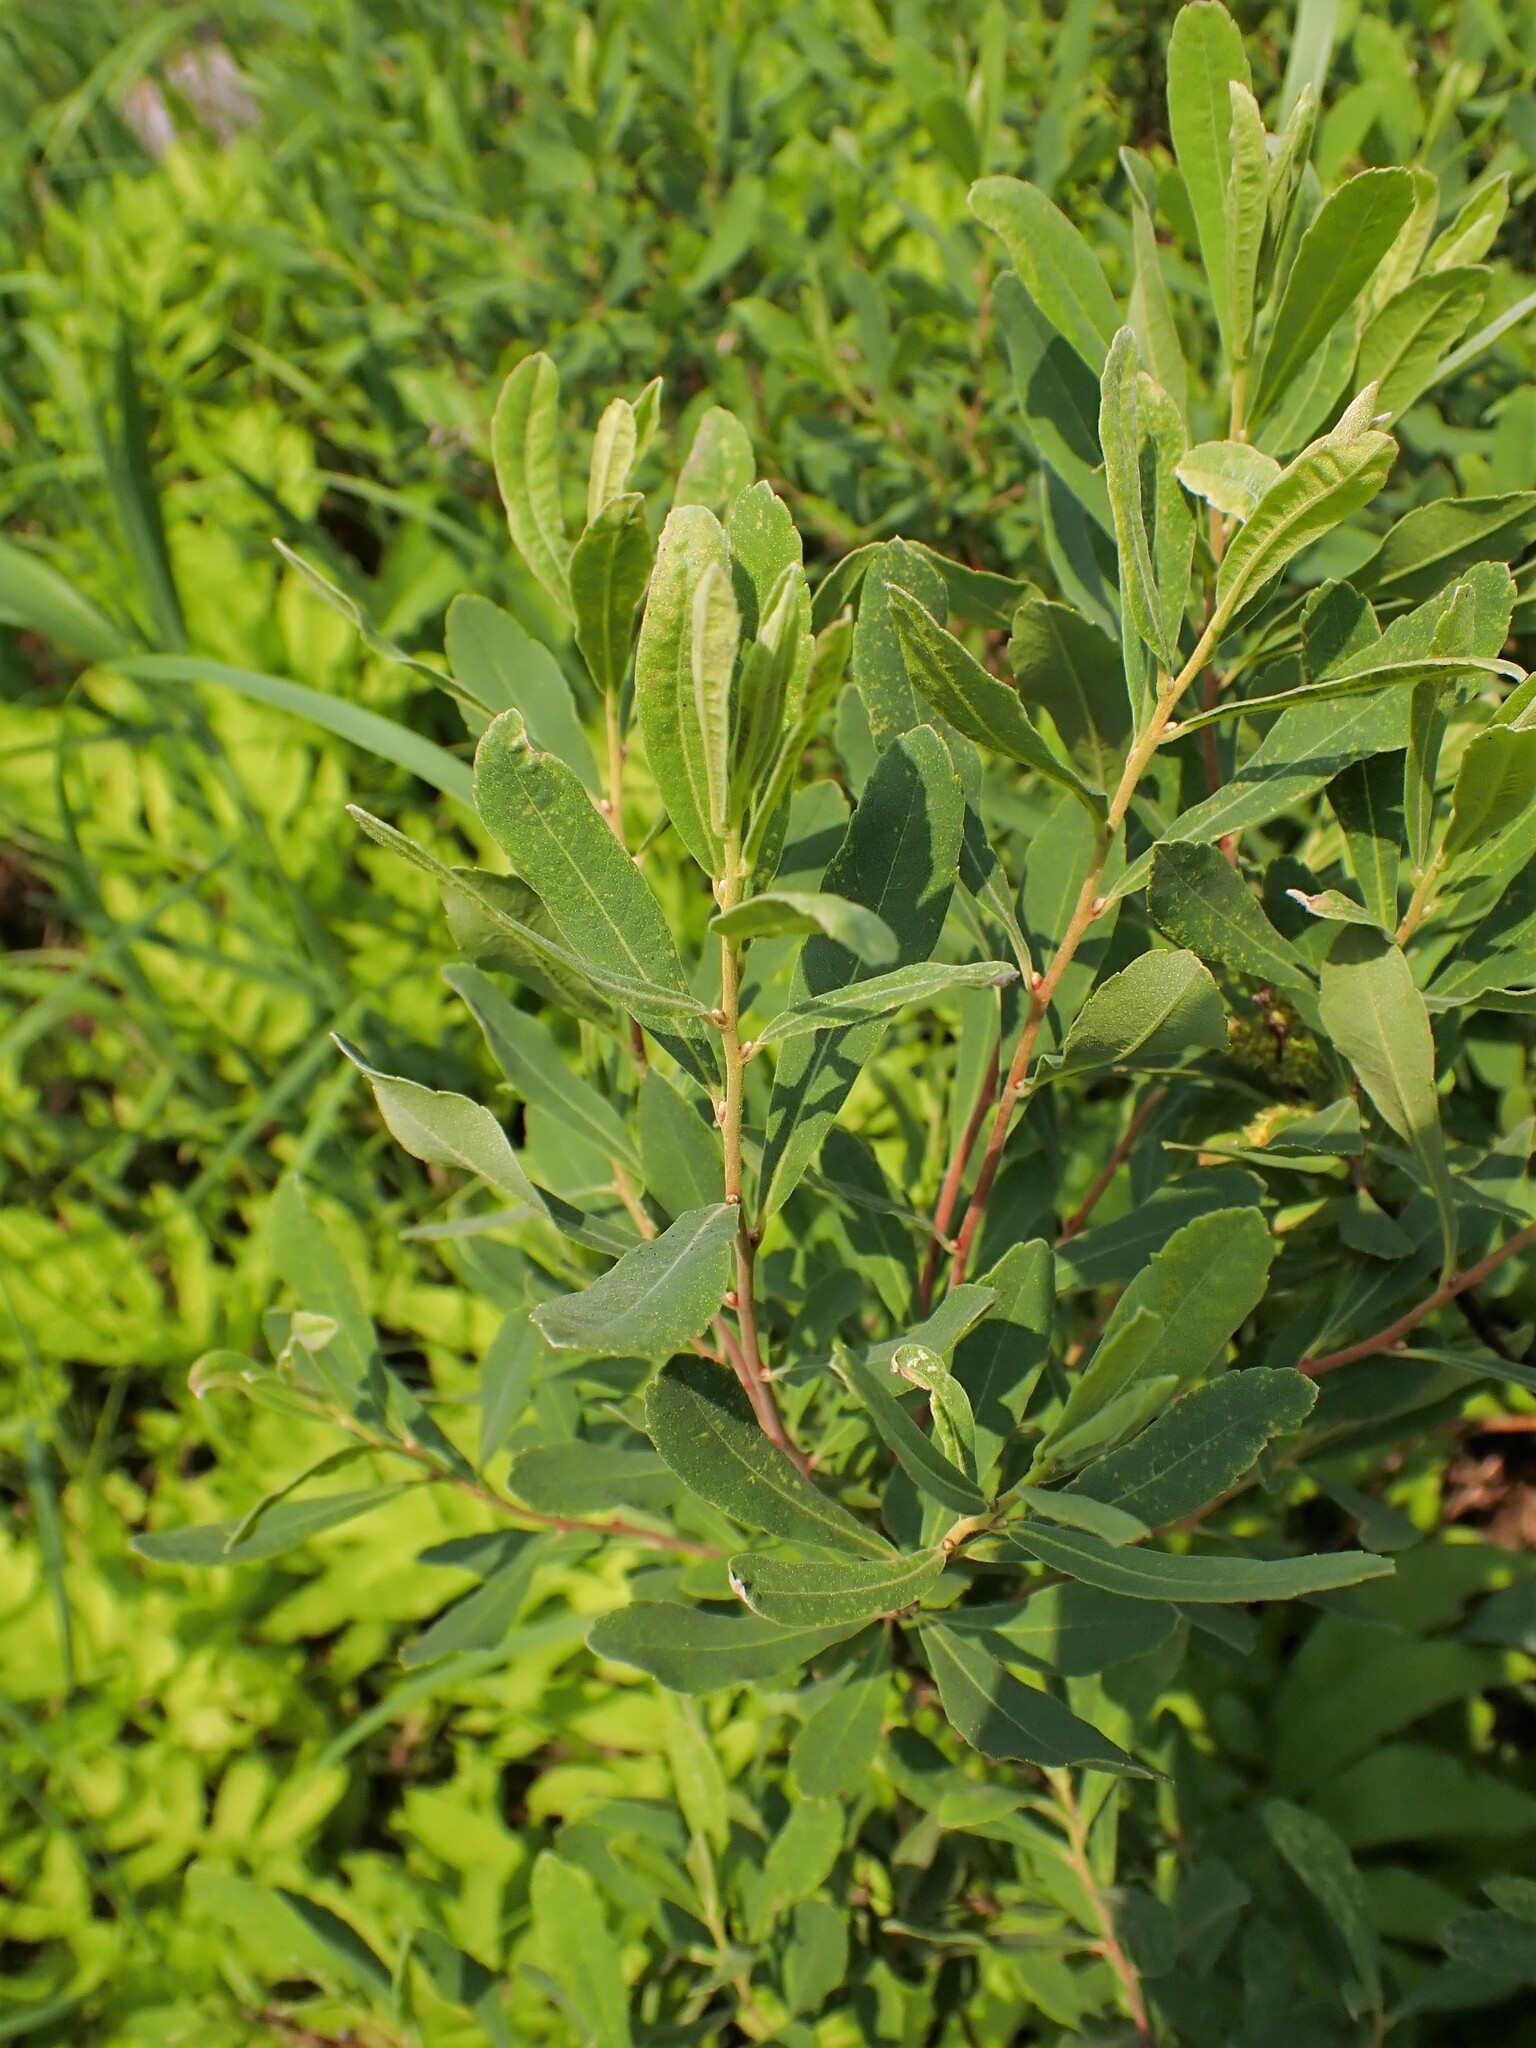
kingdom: Plantae
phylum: Tracheophyta
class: Magnoliopsida
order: Fagales
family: Myricaceae
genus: Myrica
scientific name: Myrica gale
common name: Sweet gale
